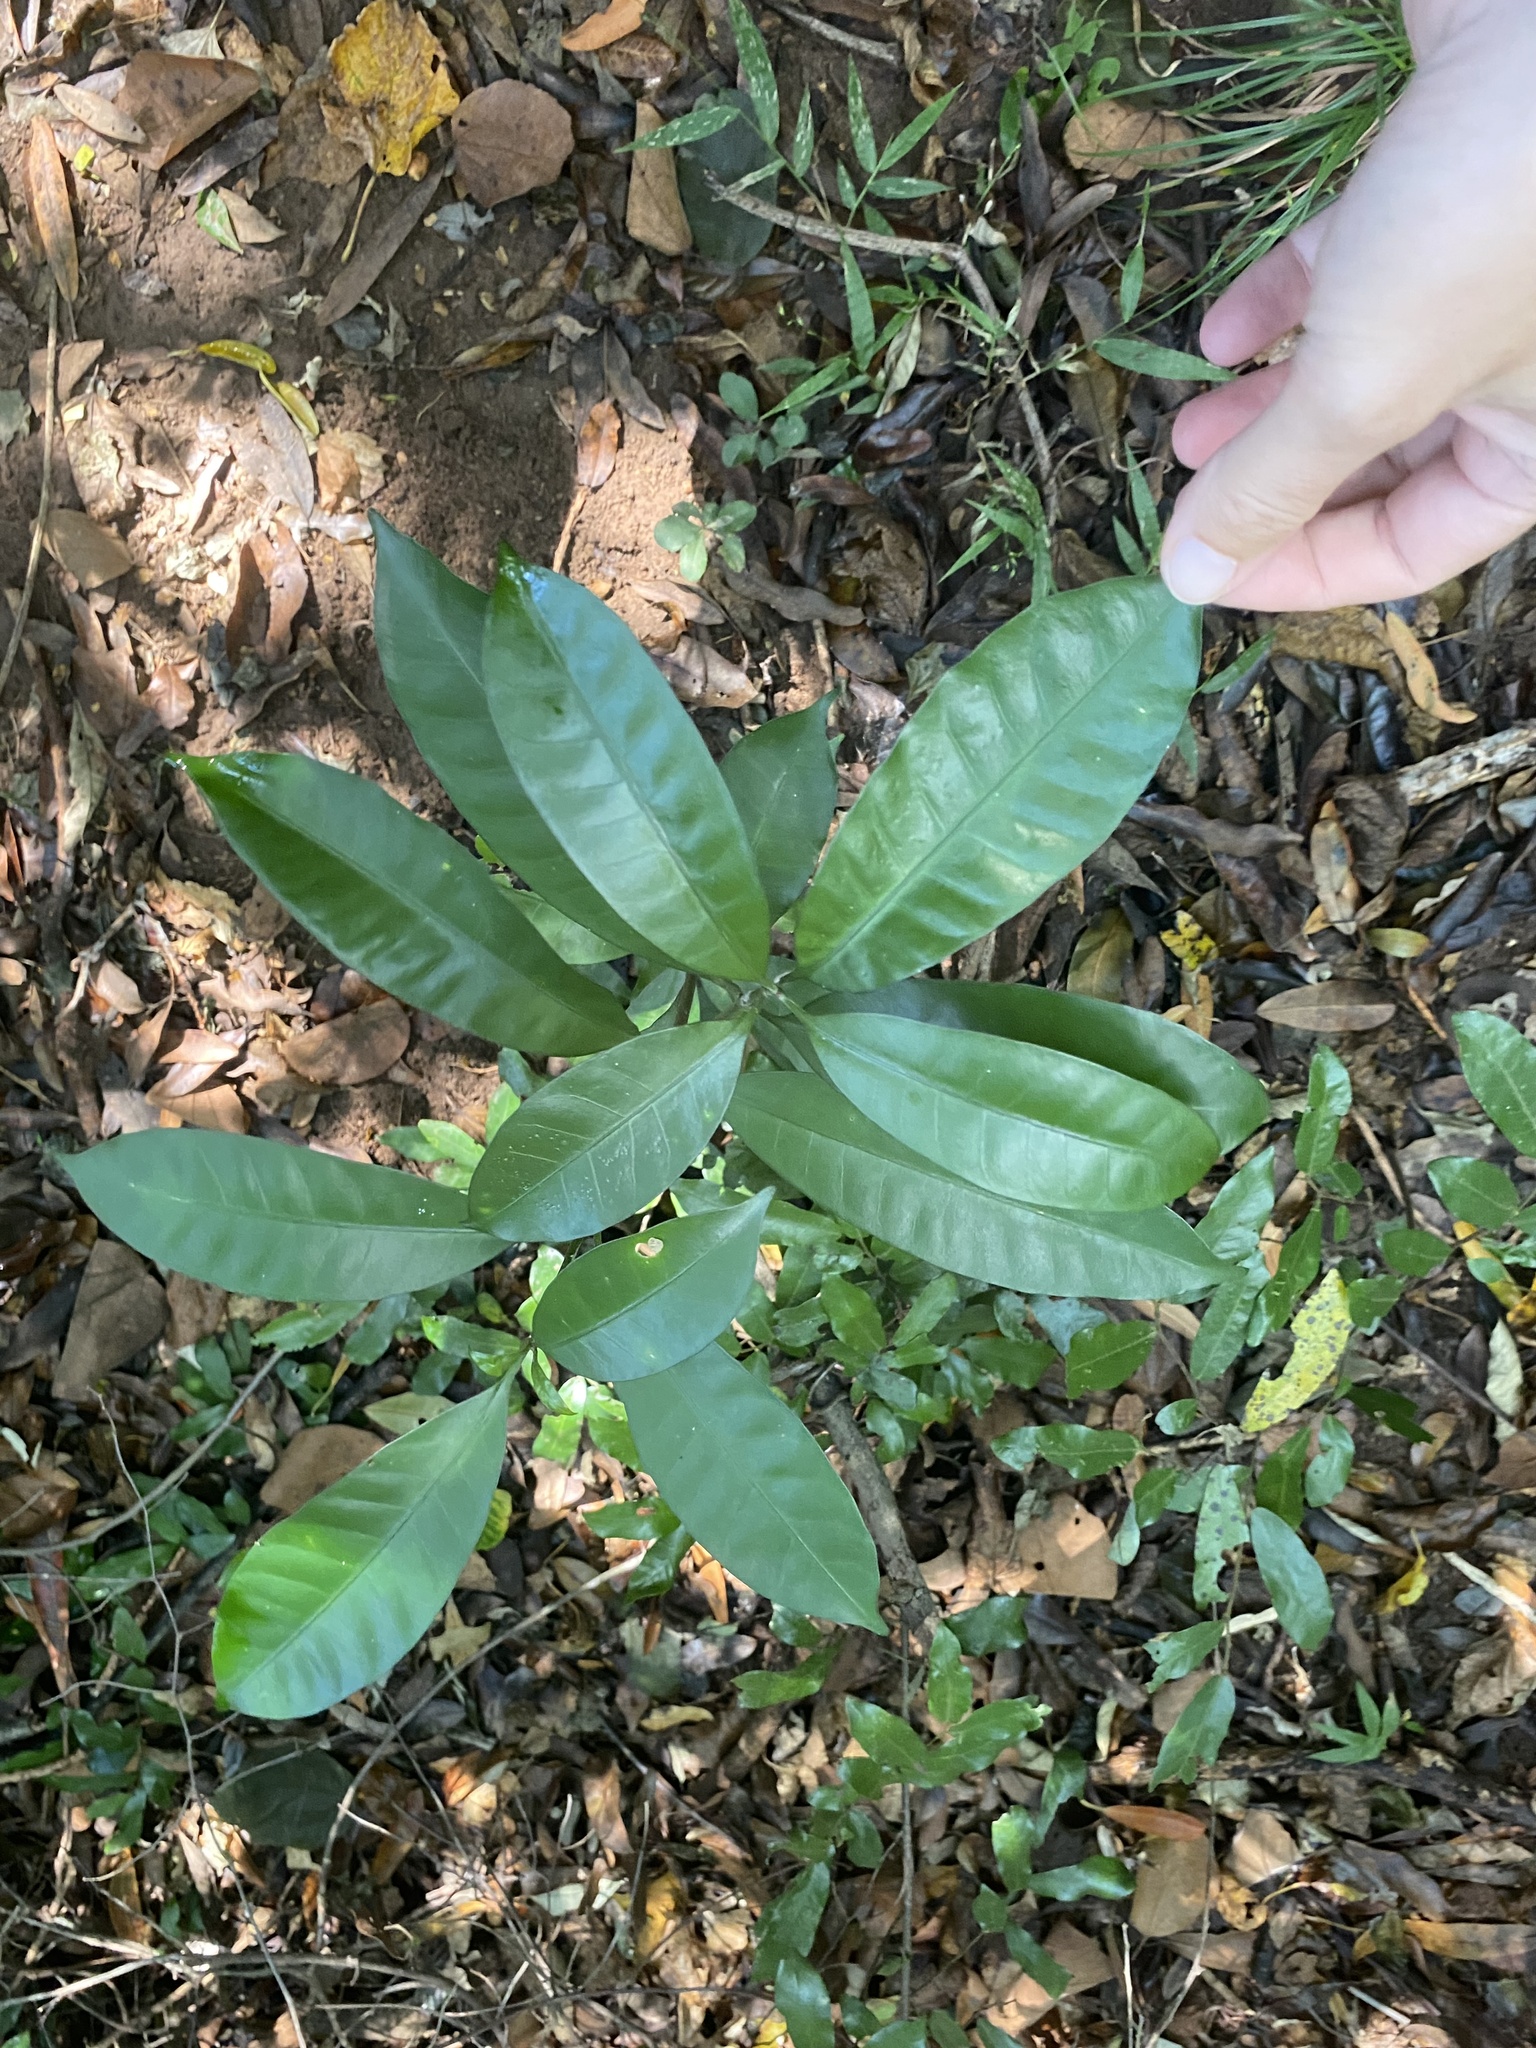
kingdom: Plantae
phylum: Tracheophyta
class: Magnoliopsida
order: Gentianales
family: Apocynaceae
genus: Tabernaemontana
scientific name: Tabernaemontana ventricosa
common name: Forest toad-tree
